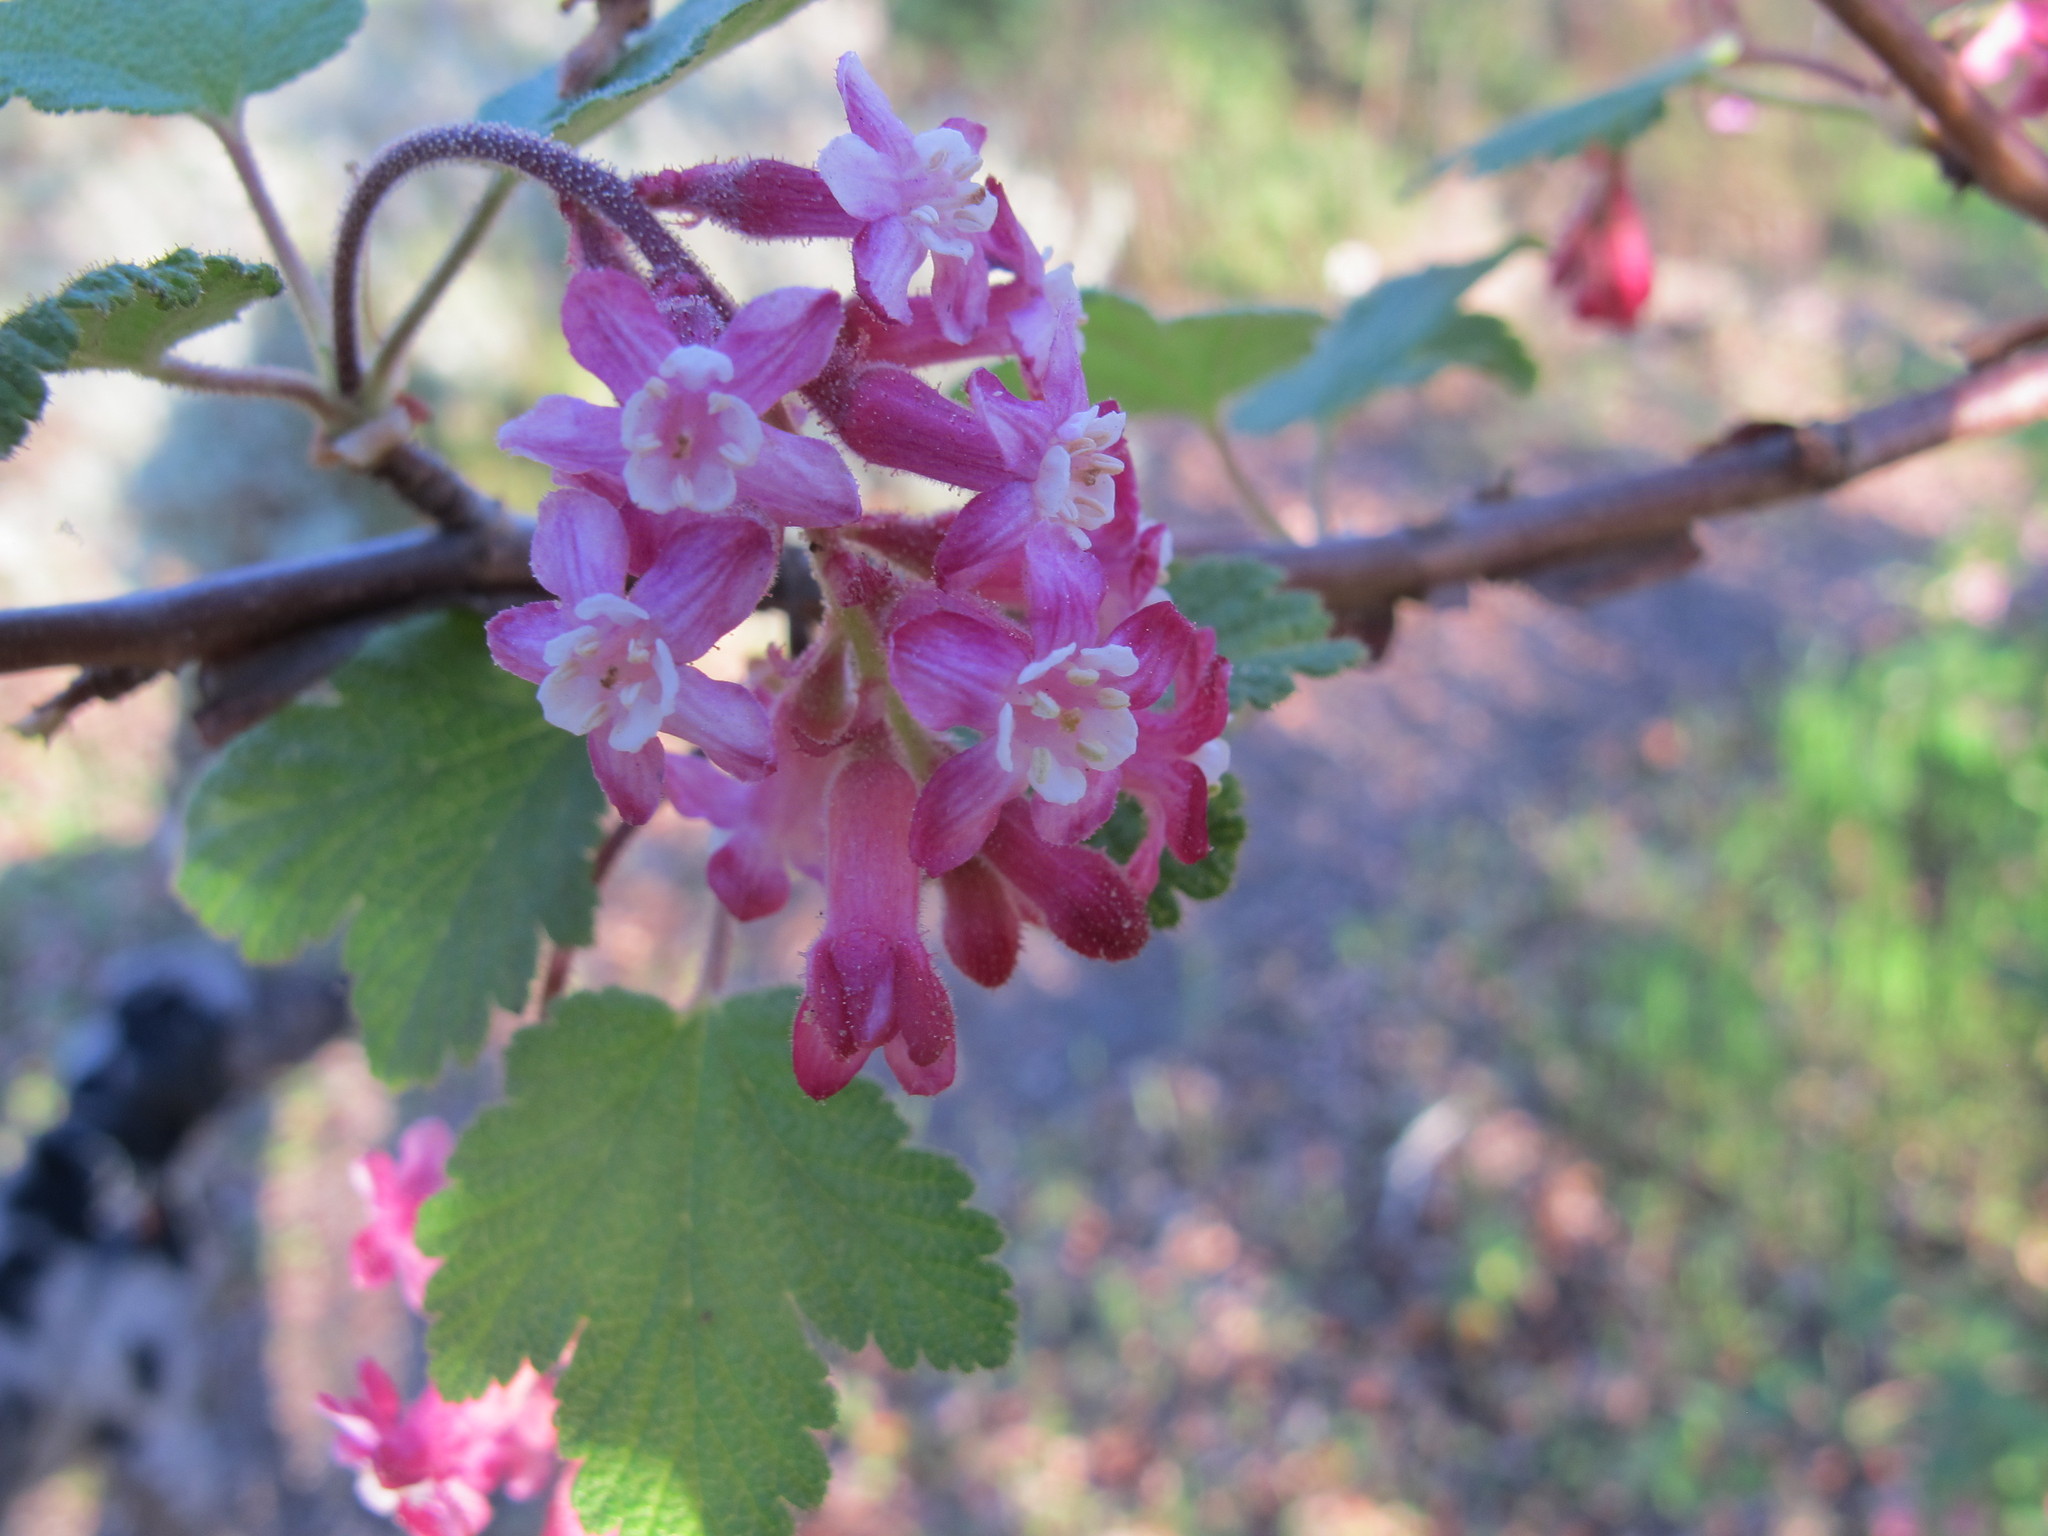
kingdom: Plantae
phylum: Tracheophyta
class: Magnoliopsida
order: Saxifragales
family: Grossulariaceae
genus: Ribes
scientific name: Ribes sanguineum
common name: Flowering currant
